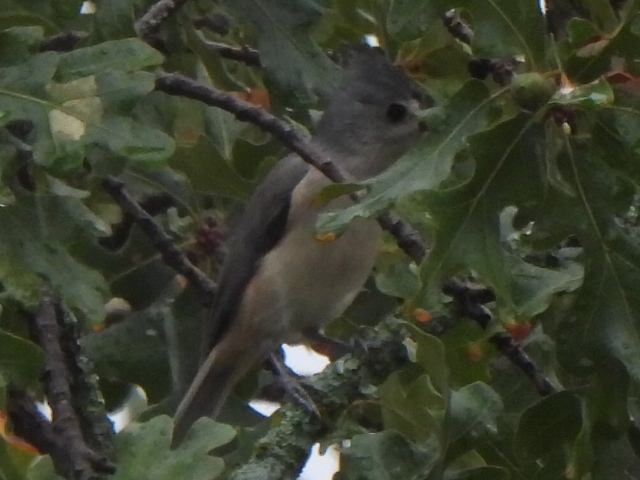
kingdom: Animalia
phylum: Chordata
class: Aves
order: Passeriformes
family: Paridae
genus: Baeolophus
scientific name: Baeolophus bicolor
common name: Tufted titmouse
